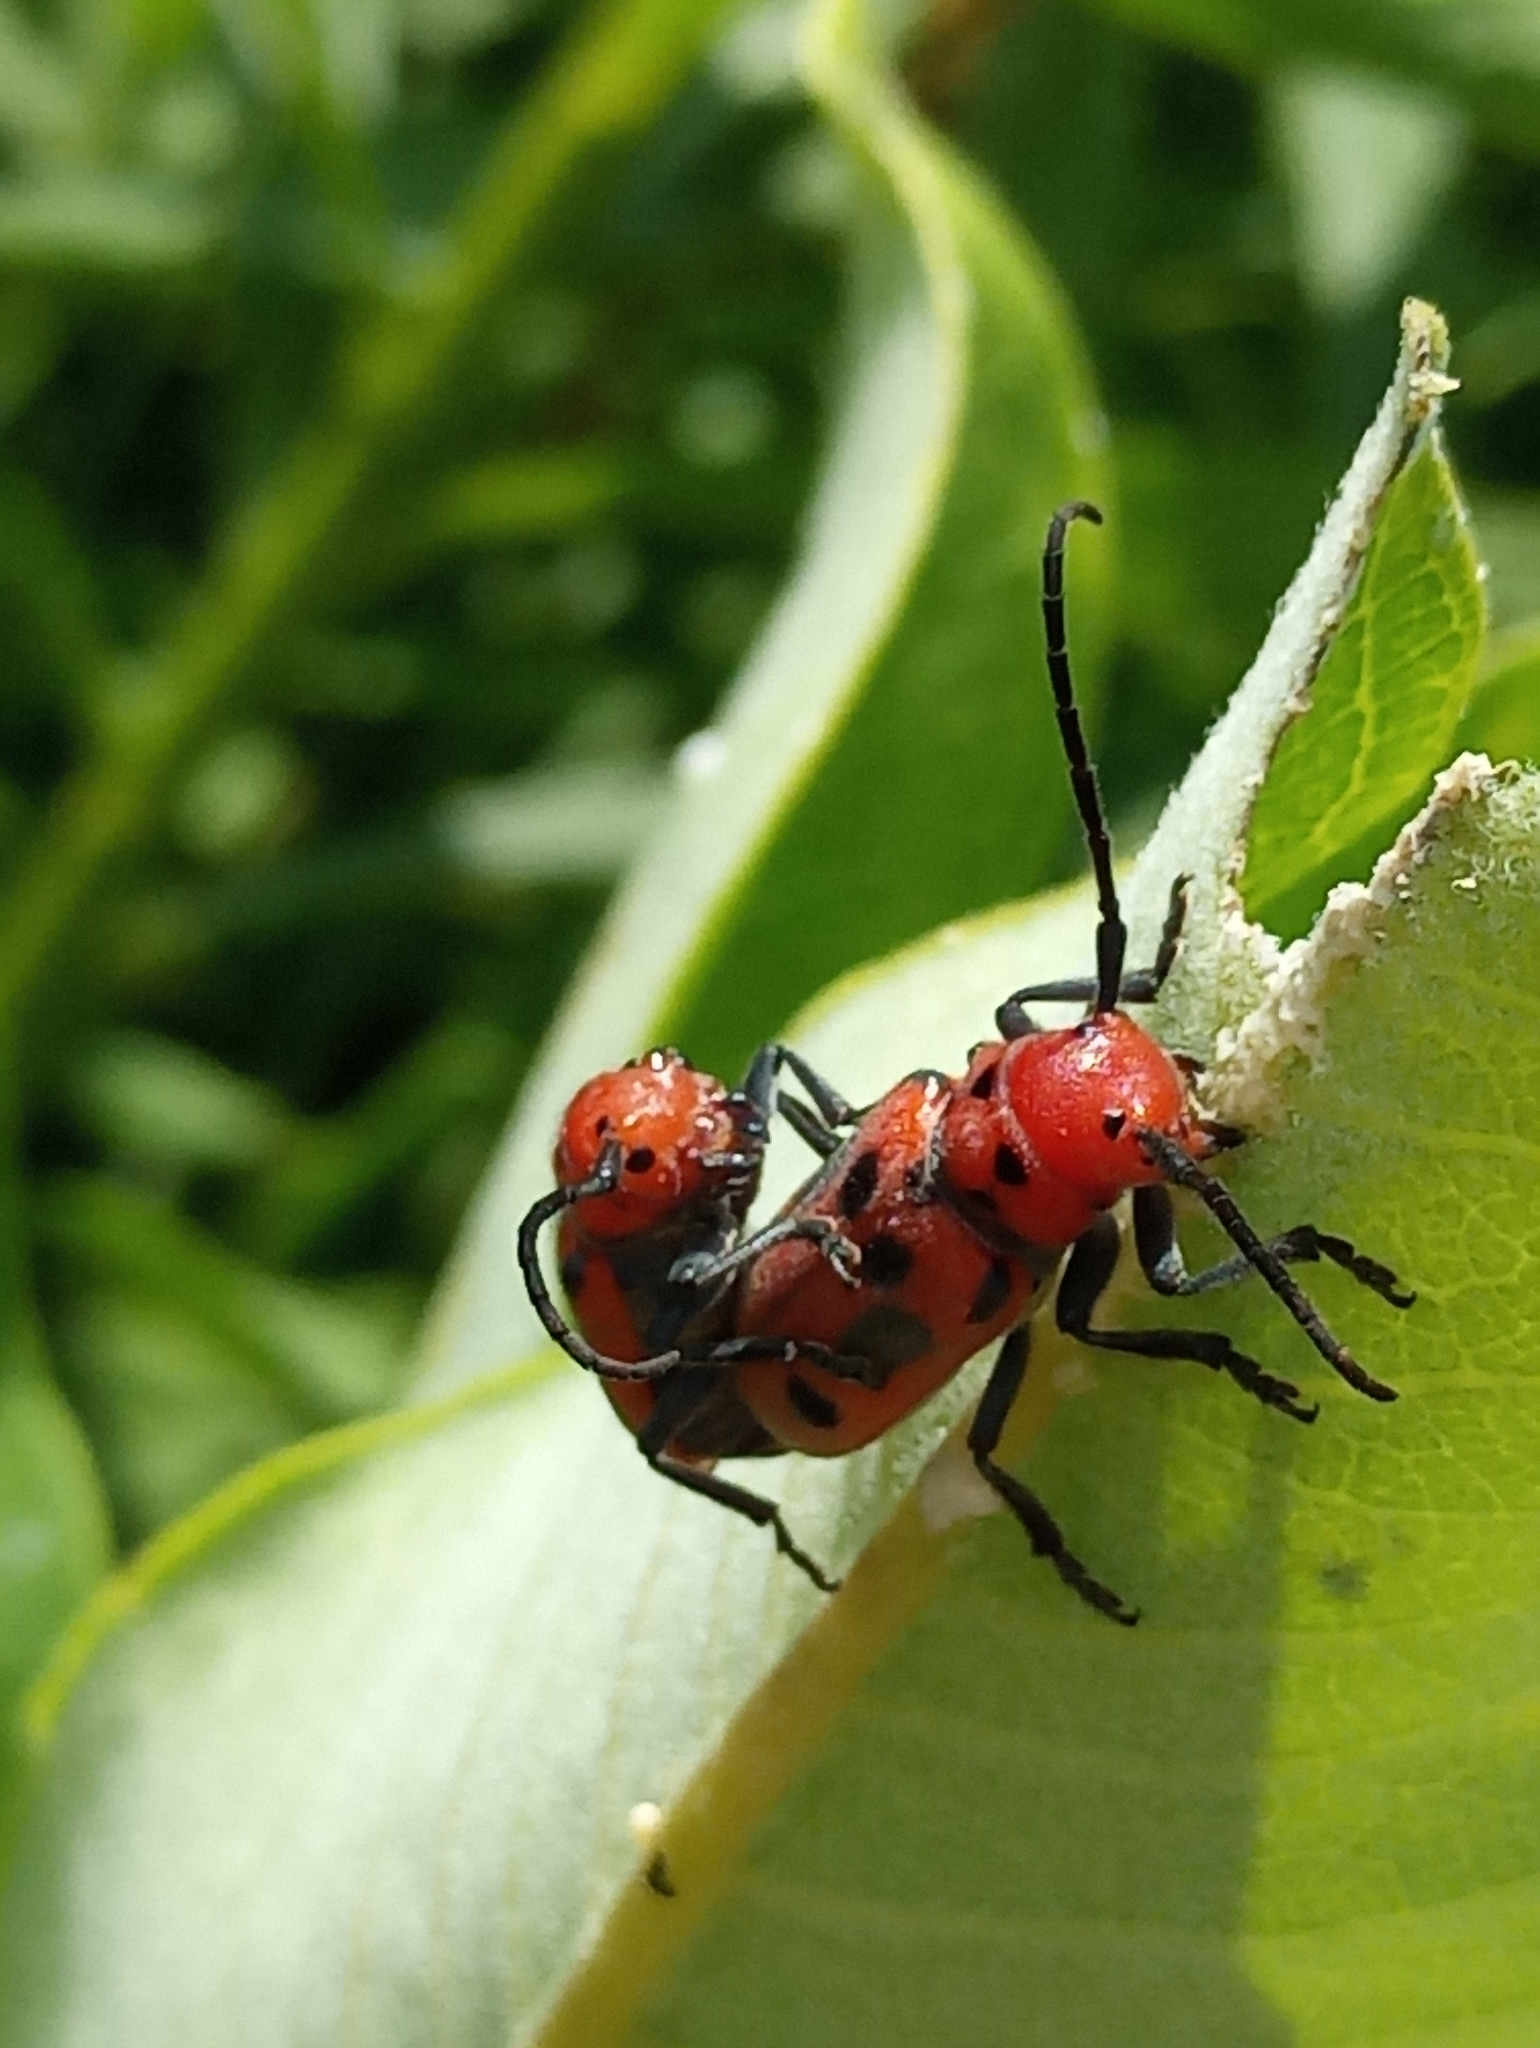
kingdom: Animalia
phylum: Arthropoda
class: Insecta
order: Coleoptera
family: Cerambycidae
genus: Tetraopes
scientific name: Tetraopes tetrophthalmus
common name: Red milkweed beetle
